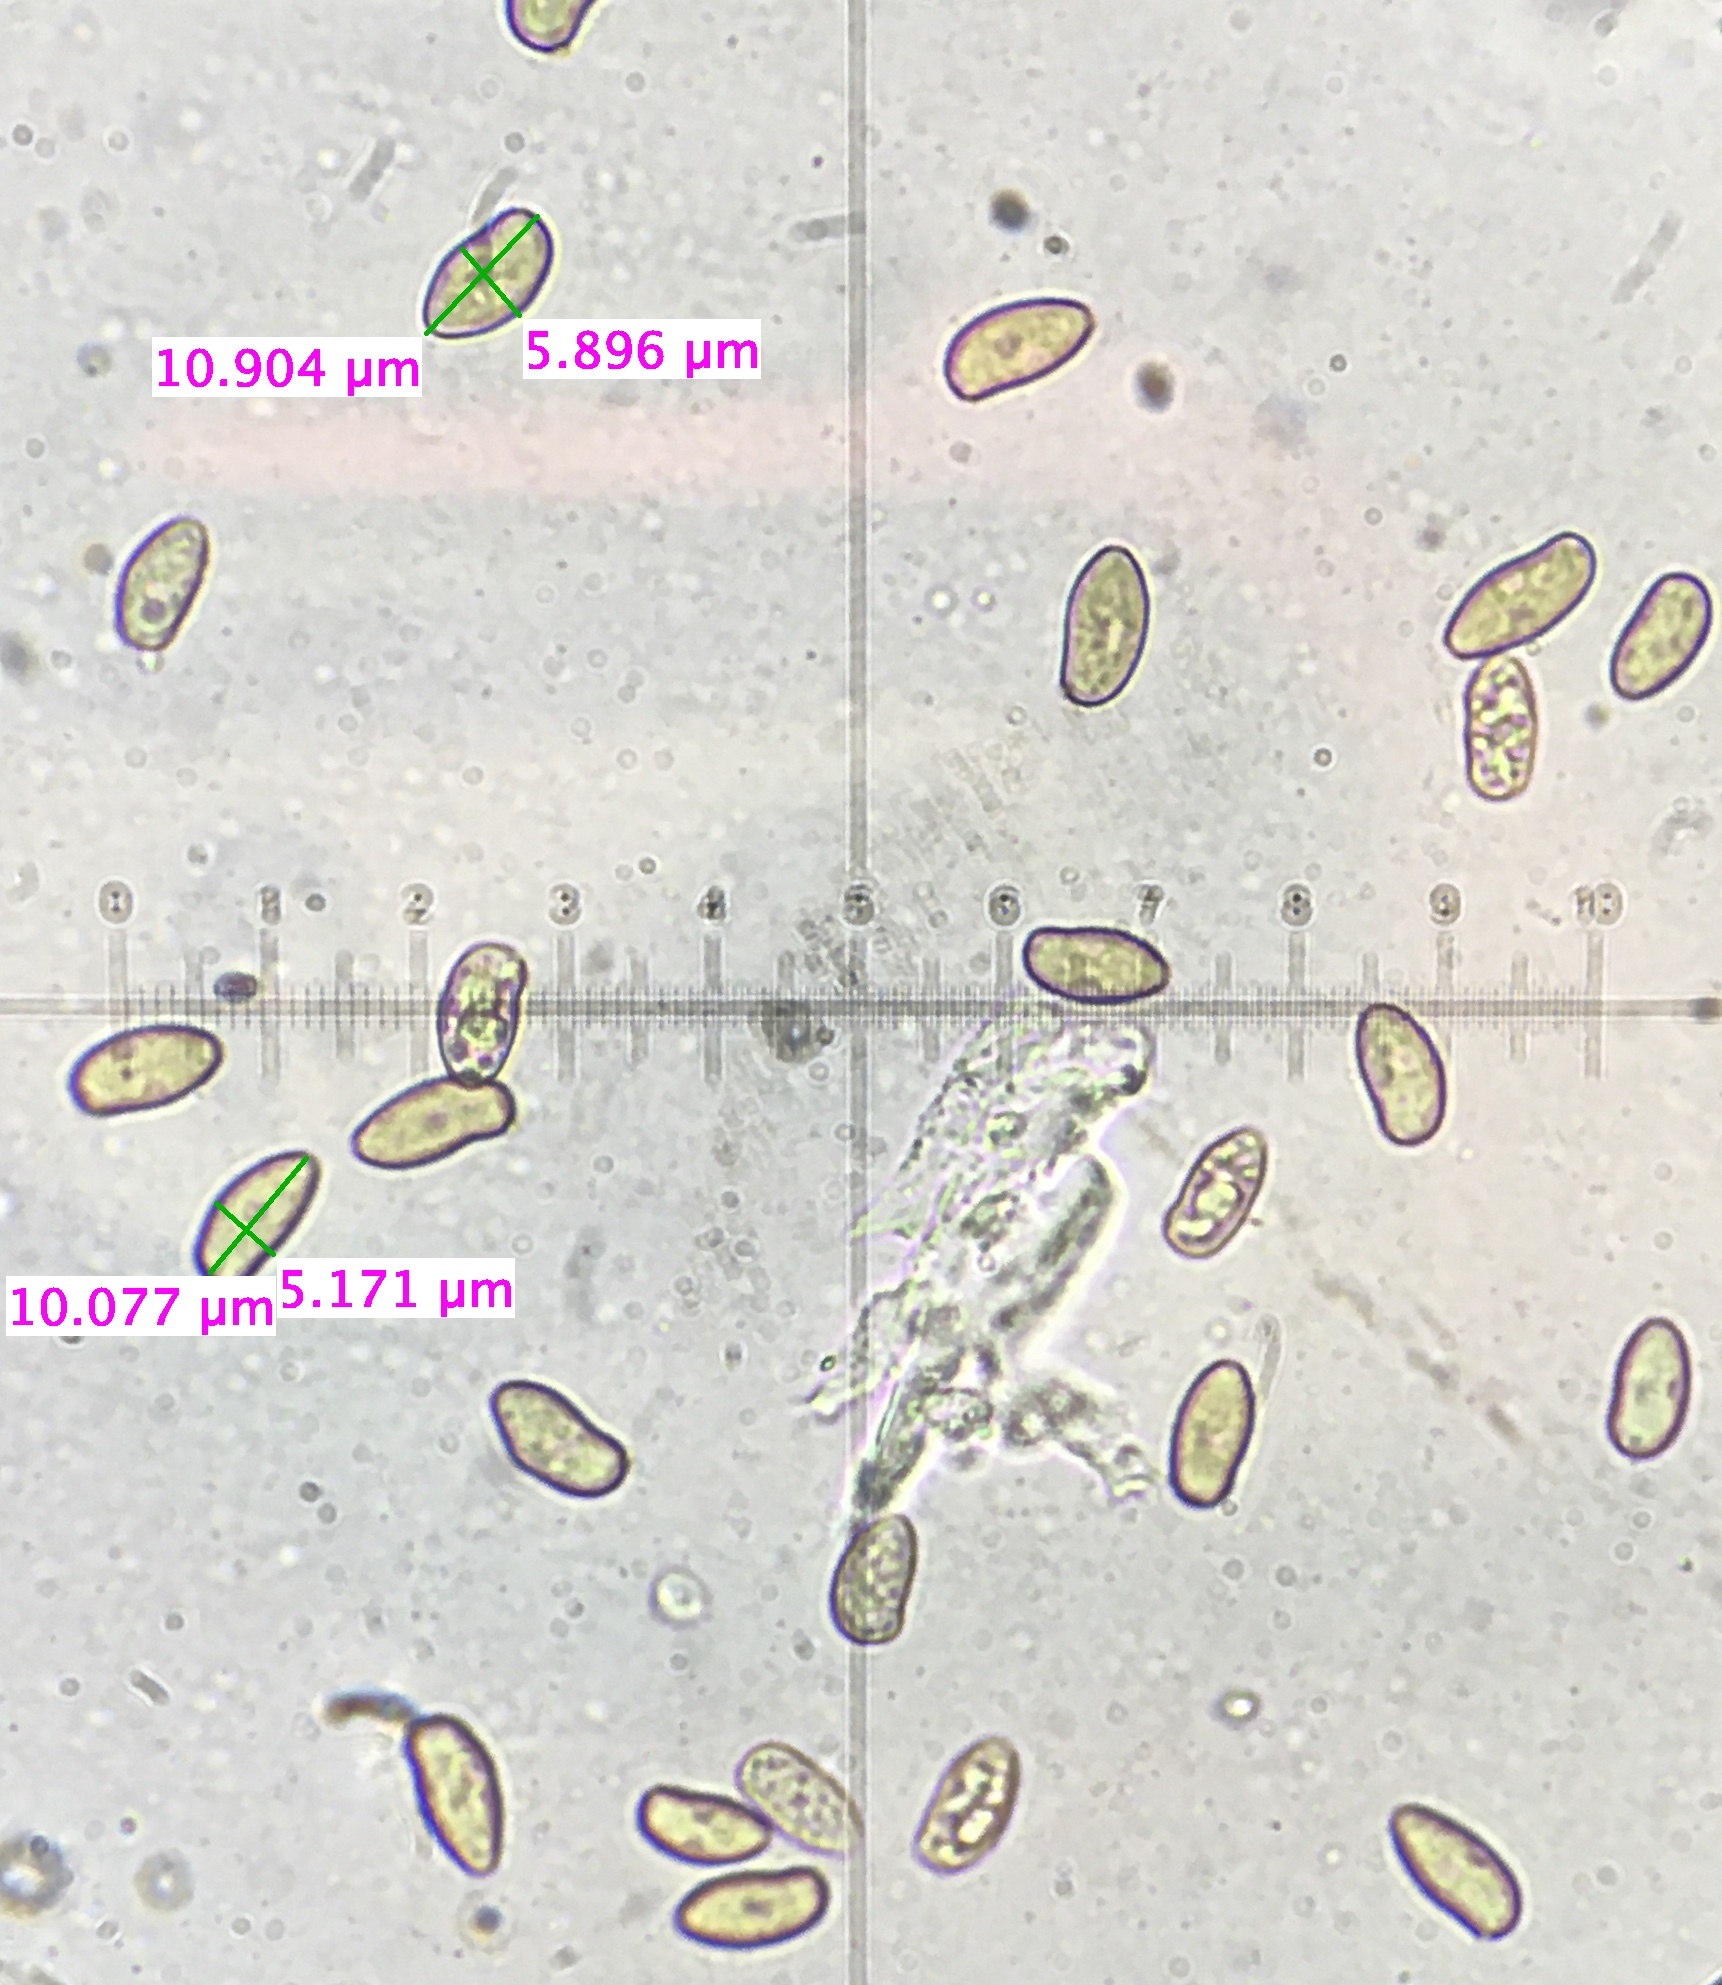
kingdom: Fungi
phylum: Basidiomycota
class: Agaricomycetes
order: Agaricales
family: Inocybaceae
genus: Inocybe
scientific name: Inocybe lacera
